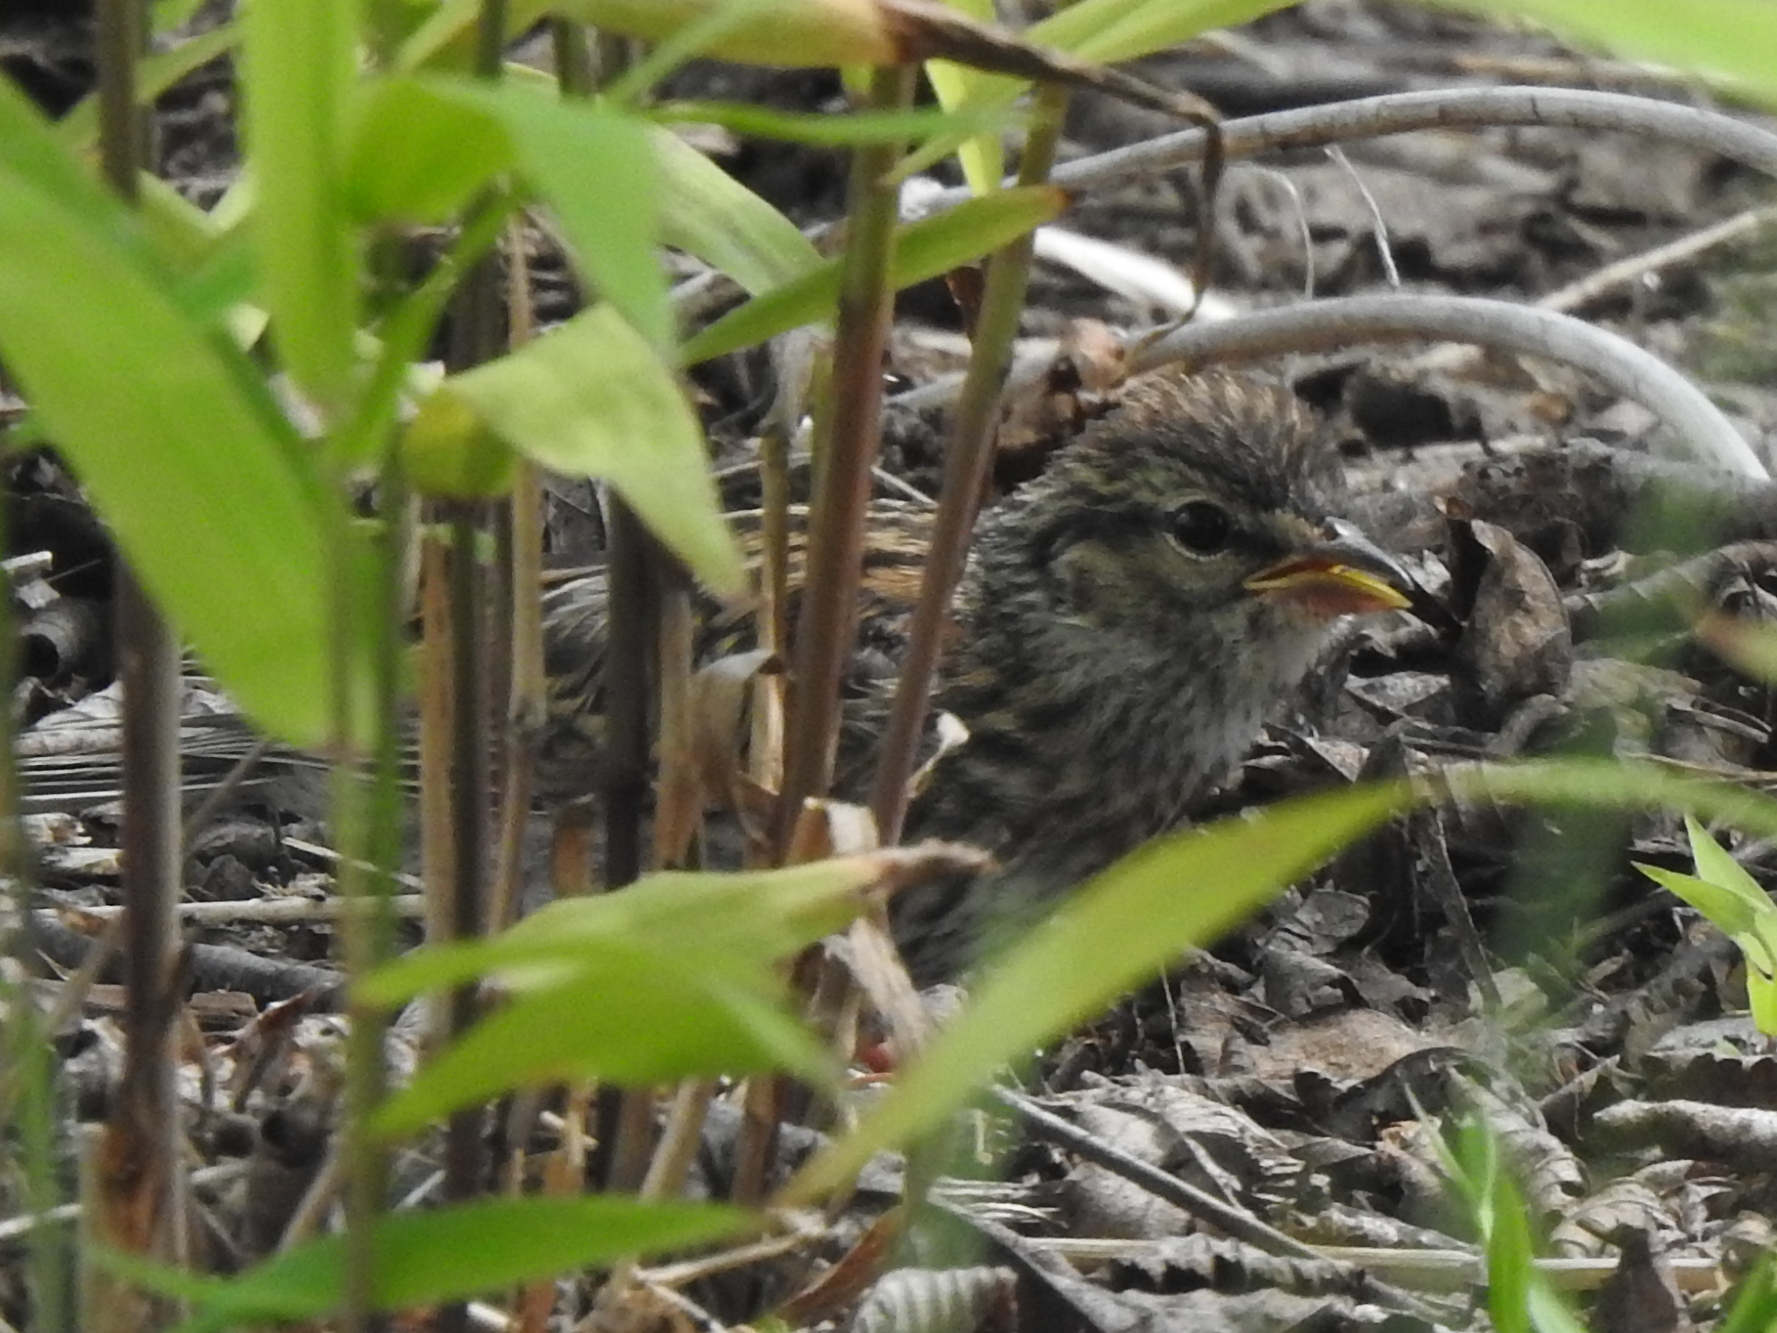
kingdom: Animalia
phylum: Chordata
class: Aves
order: Passeriformes
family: Passerellidae
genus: Spizella
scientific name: Spizella passerina
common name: Chipping sparrow
